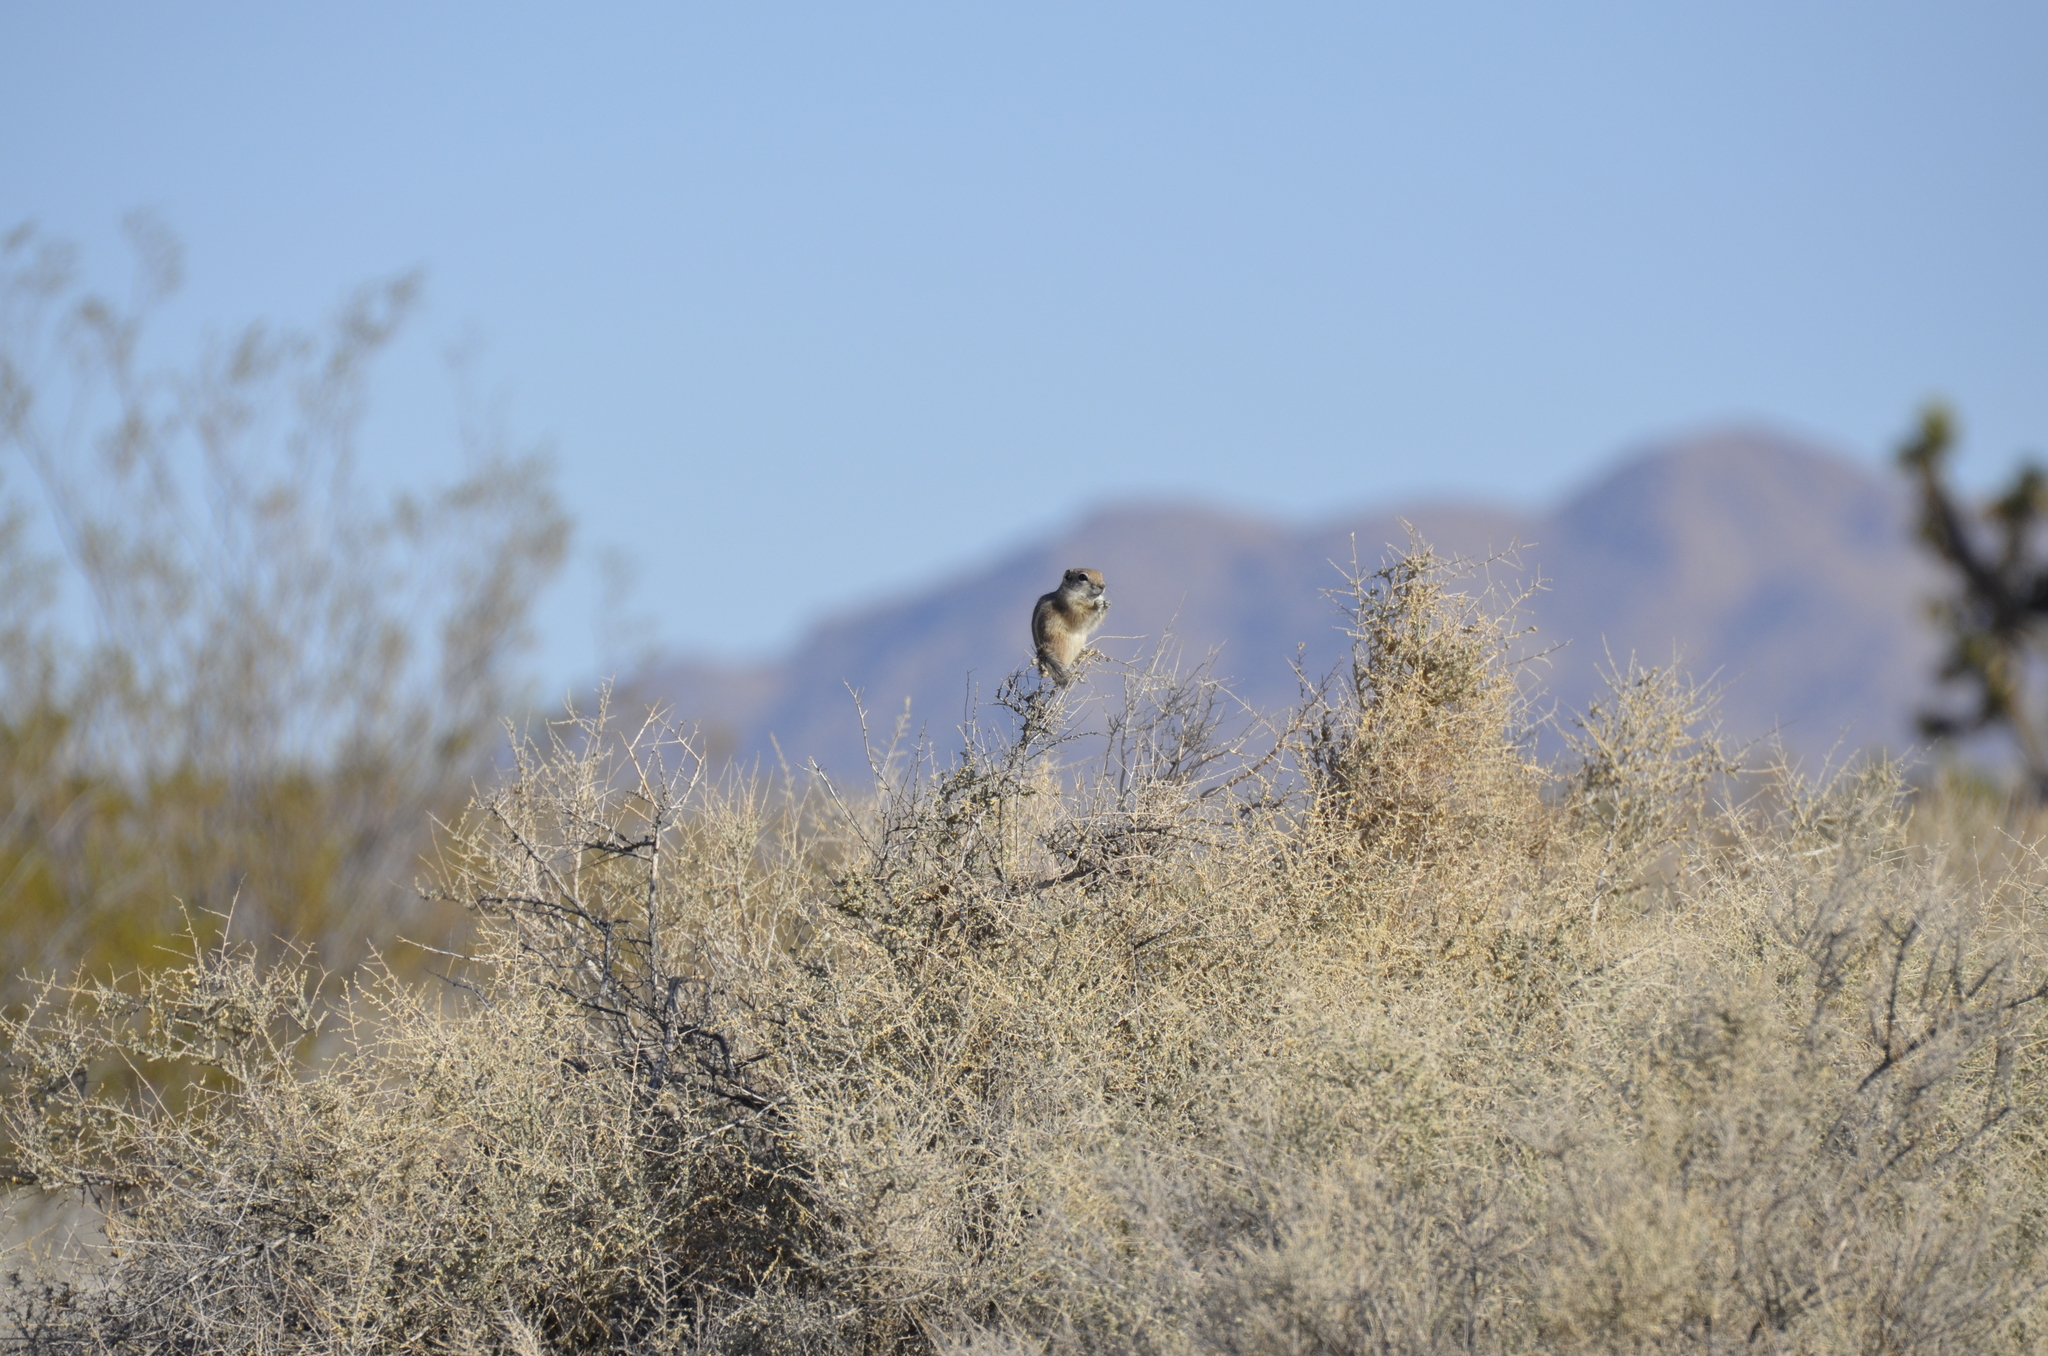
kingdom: Animalia
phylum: Chordata
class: Mammalia
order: Rodentia
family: Sciuridae
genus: Ammospermophilus
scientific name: Ammospermophilus leucurus
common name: White-tailed antelope squirrel
